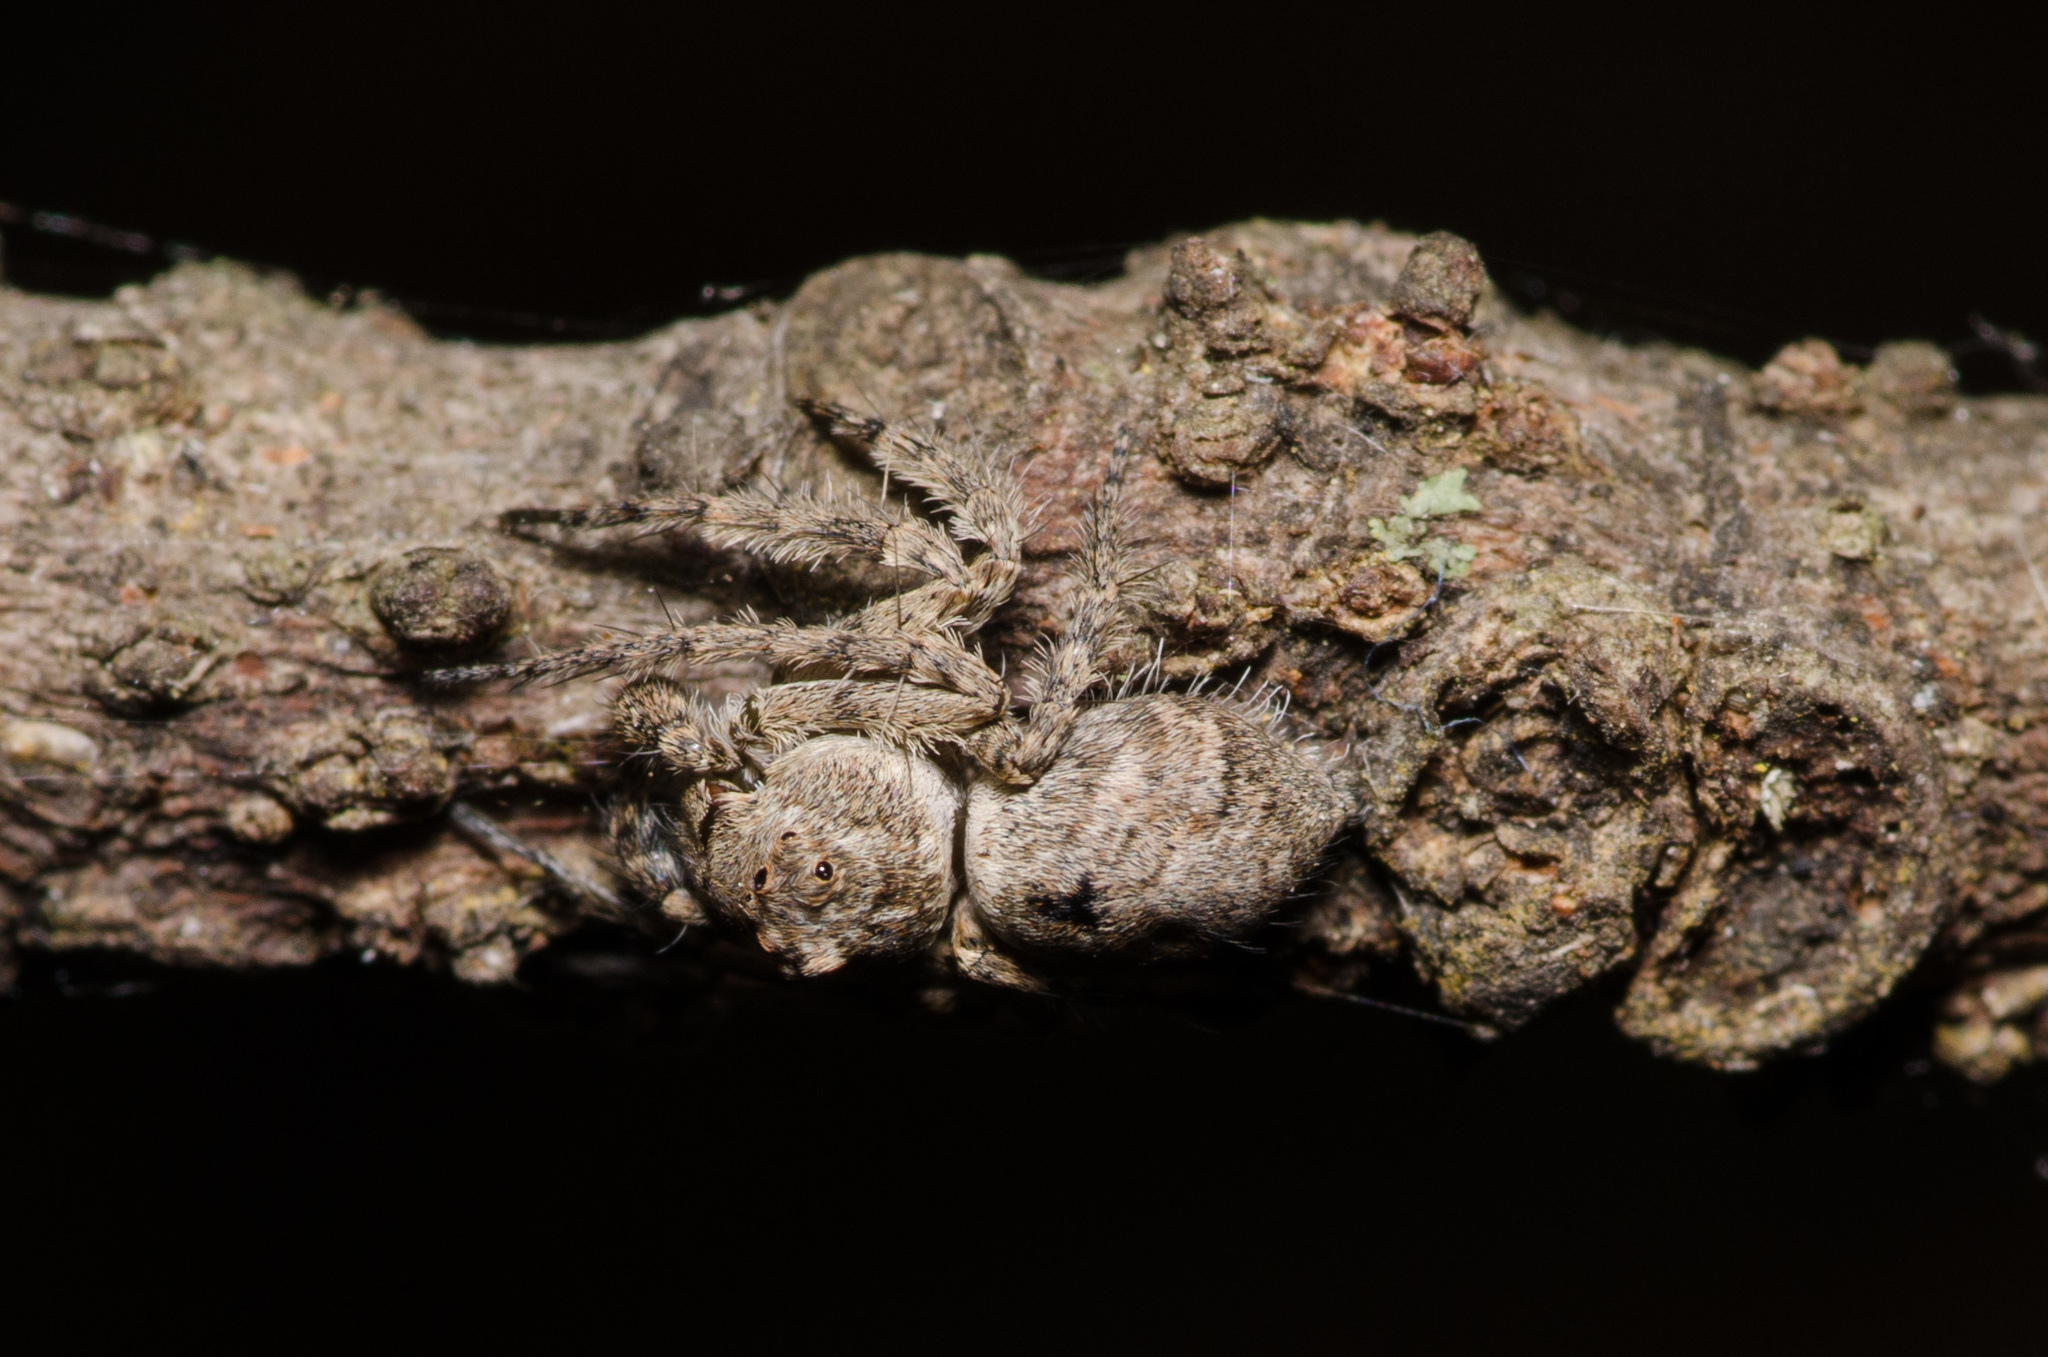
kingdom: Animalia
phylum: Arthropoda
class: Arachnida
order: Araneae
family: Oxyopidae
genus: Hamataliwa
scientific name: Hamataliwa grisea
